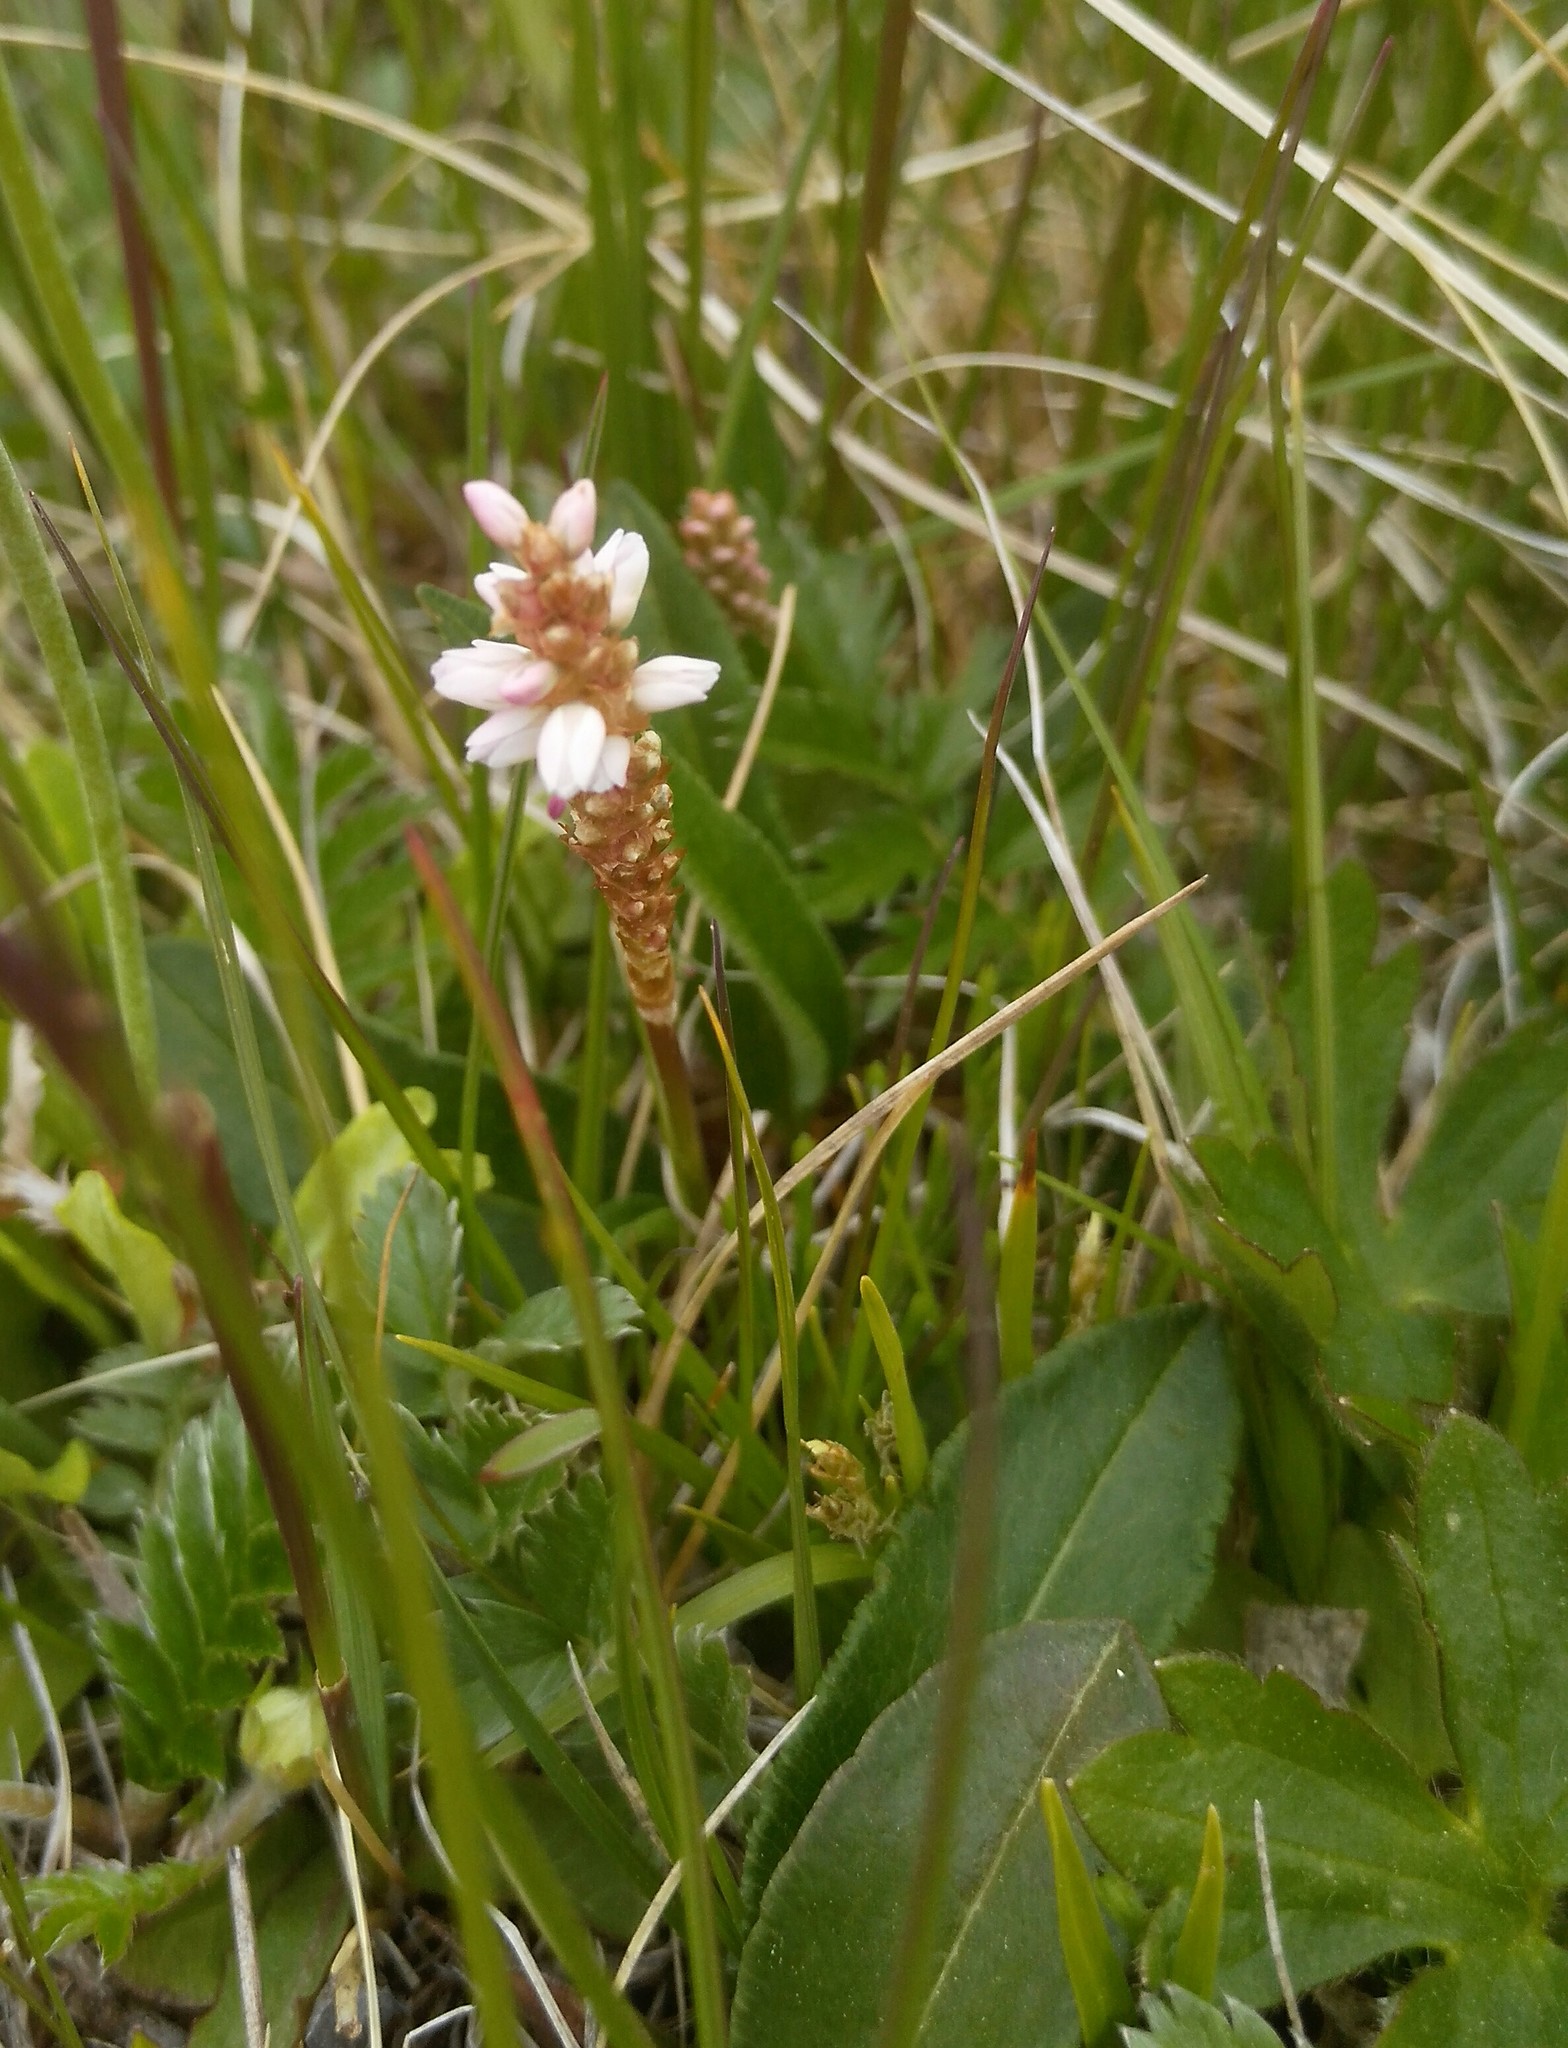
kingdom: Plantae
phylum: Tracheophyta
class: Magnoliopsida
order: Caryophyllales
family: Polygonaceae
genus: Bistorta
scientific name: Bistorta vivipara
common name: Alpine bistort
